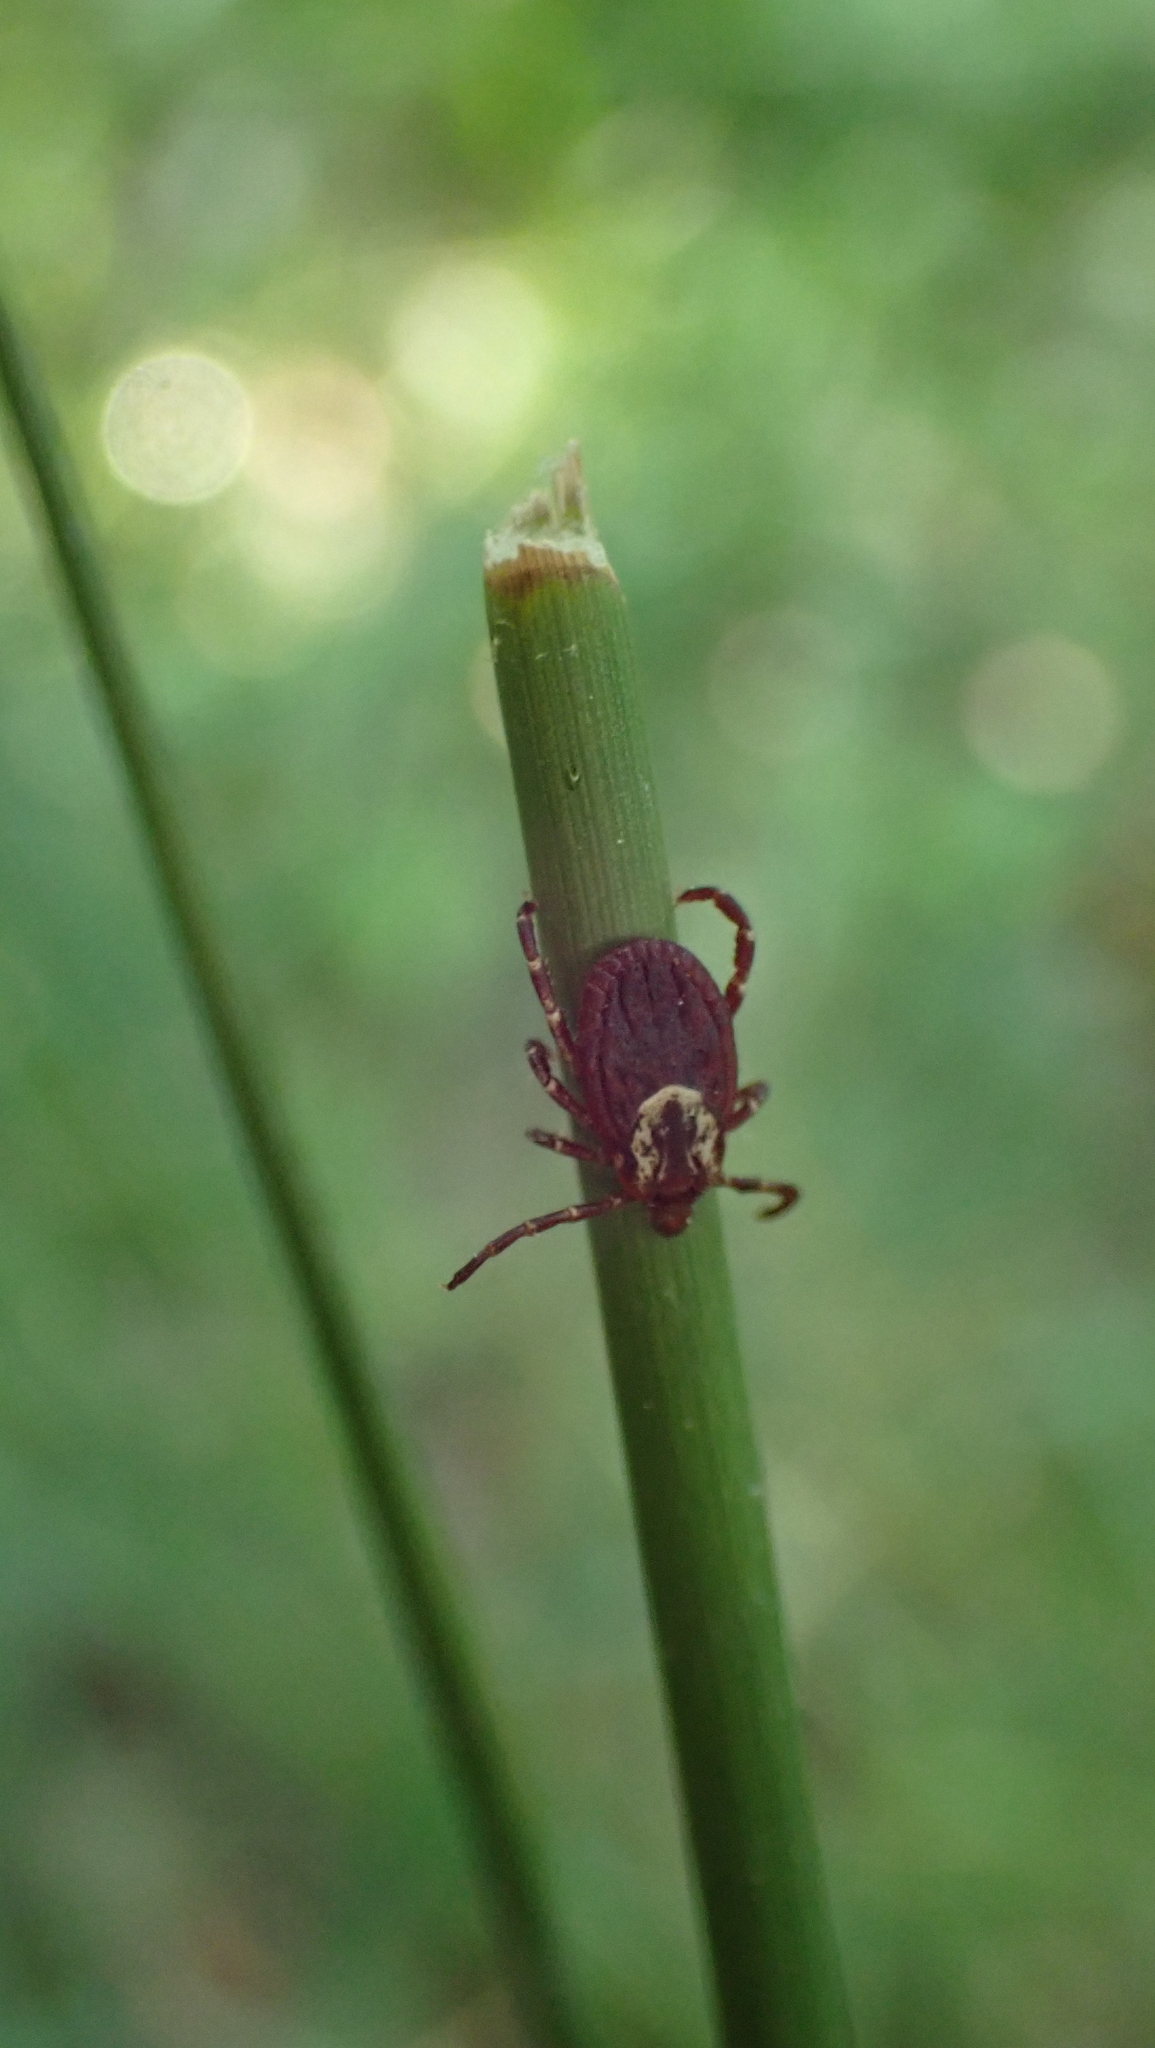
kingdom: Animalia
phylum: Arthropoda
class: Arachnida
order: Ixodida
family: Ixodidae
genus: Dermacentor
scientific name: Dermacentor variabilis
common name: American dog tick
